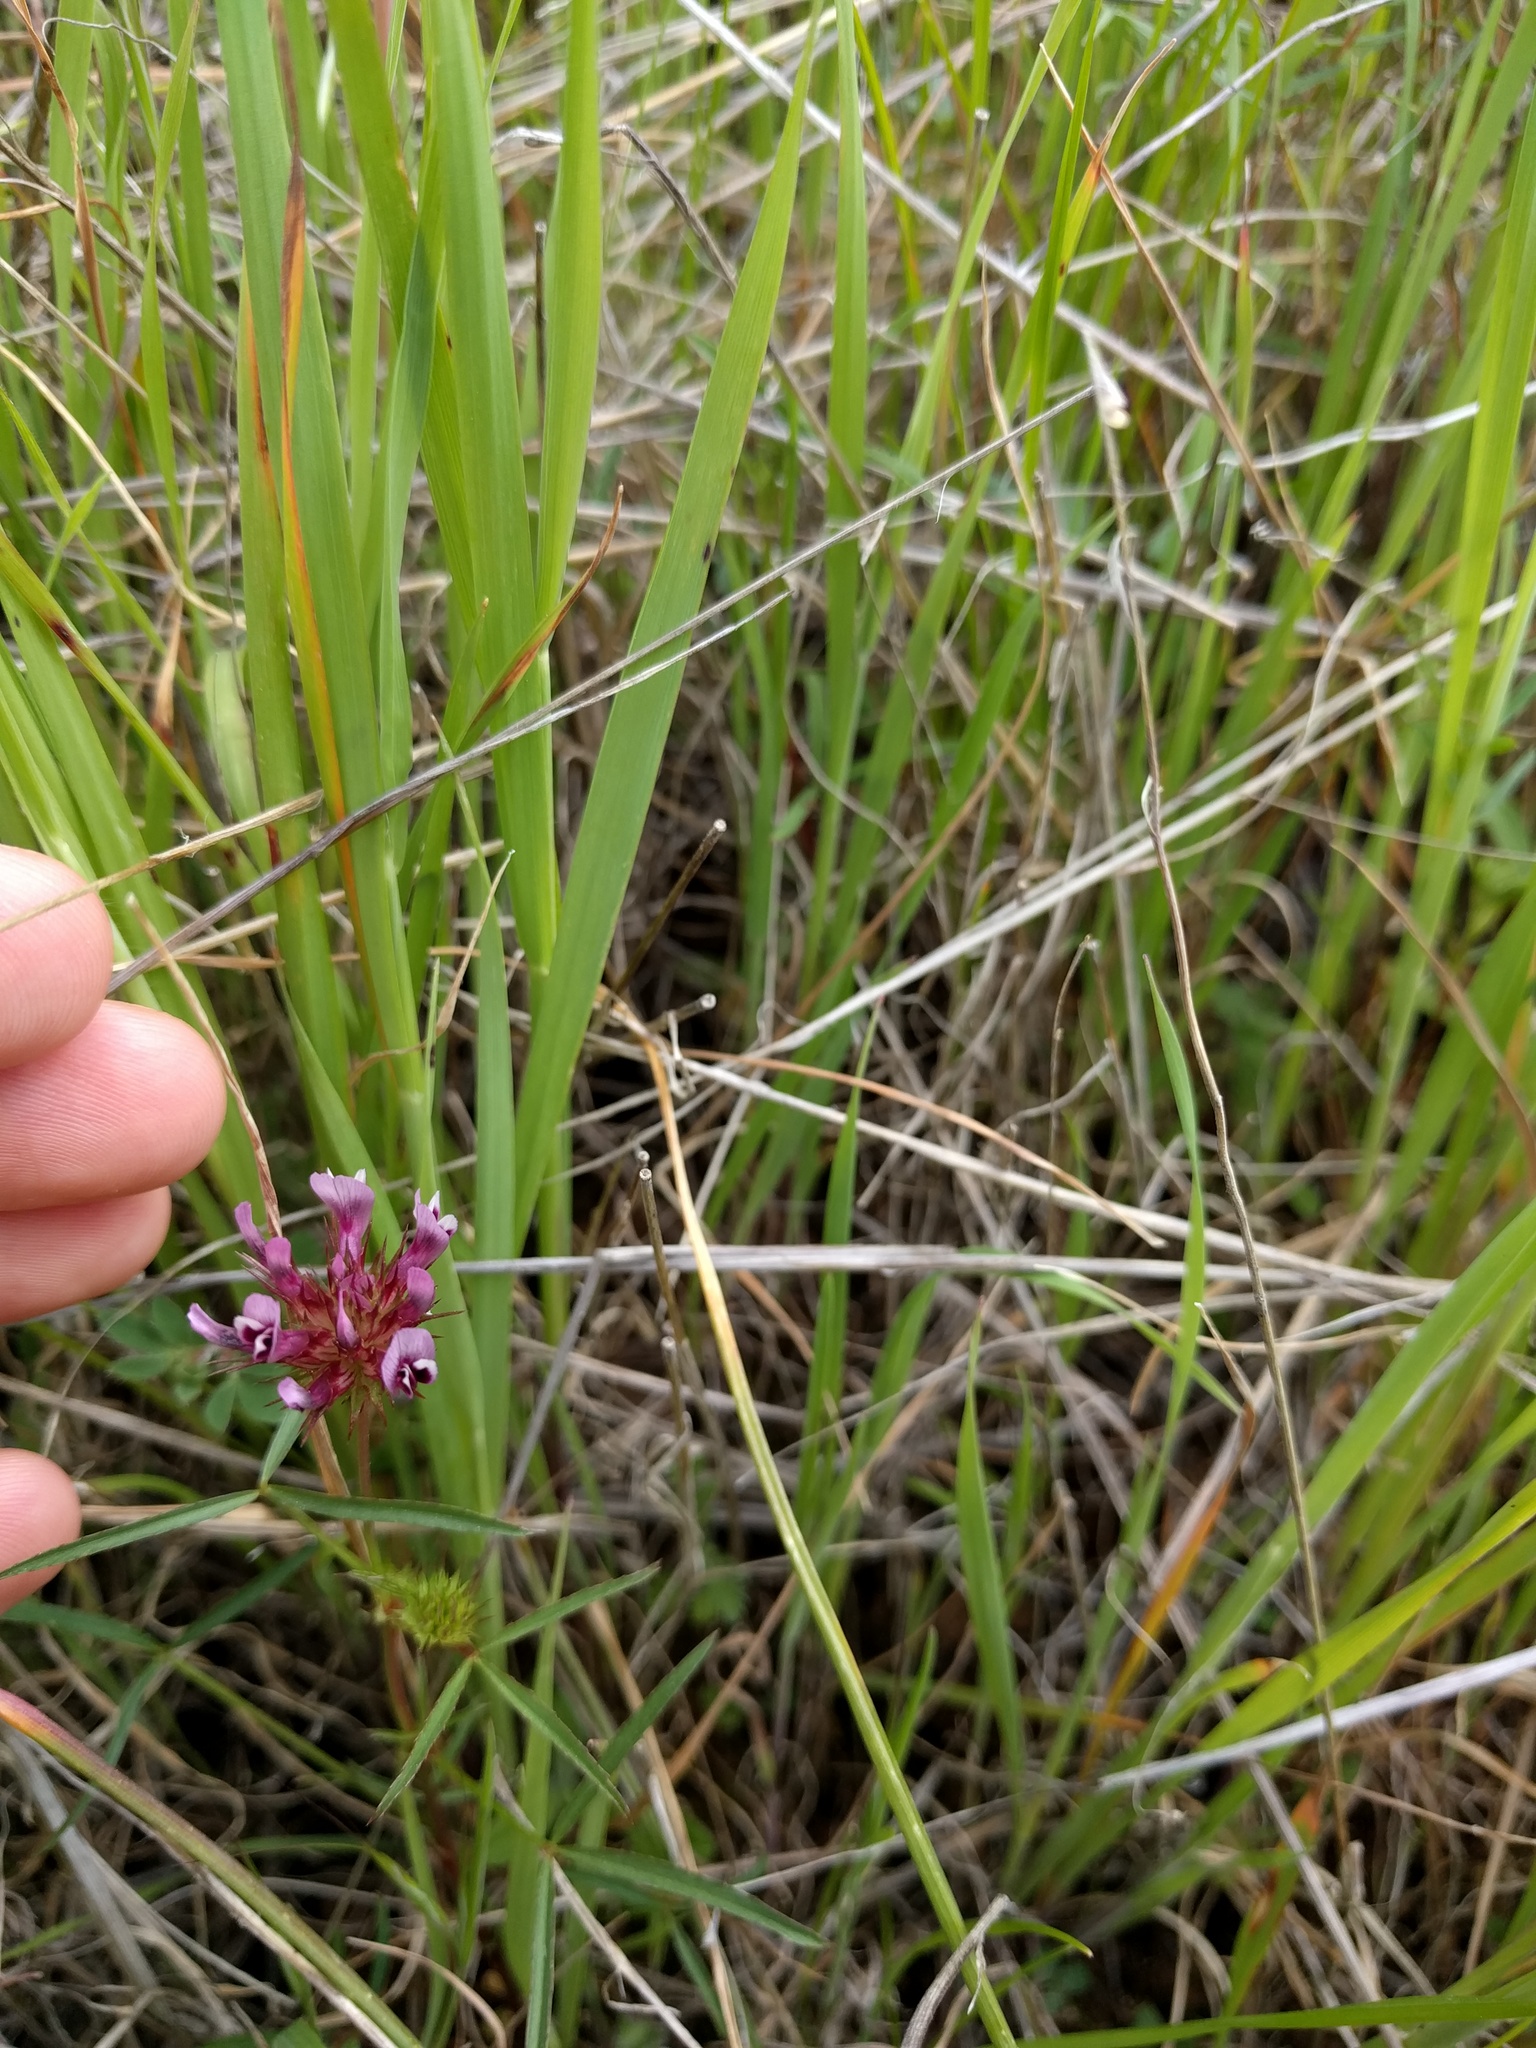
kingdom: Plantae
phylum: Tracheophyta
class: Magnoliopsida
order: Fabales
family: Fabaceae
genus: Trifolium
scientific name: Trifolium willdenovii
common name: Tomcat clover
